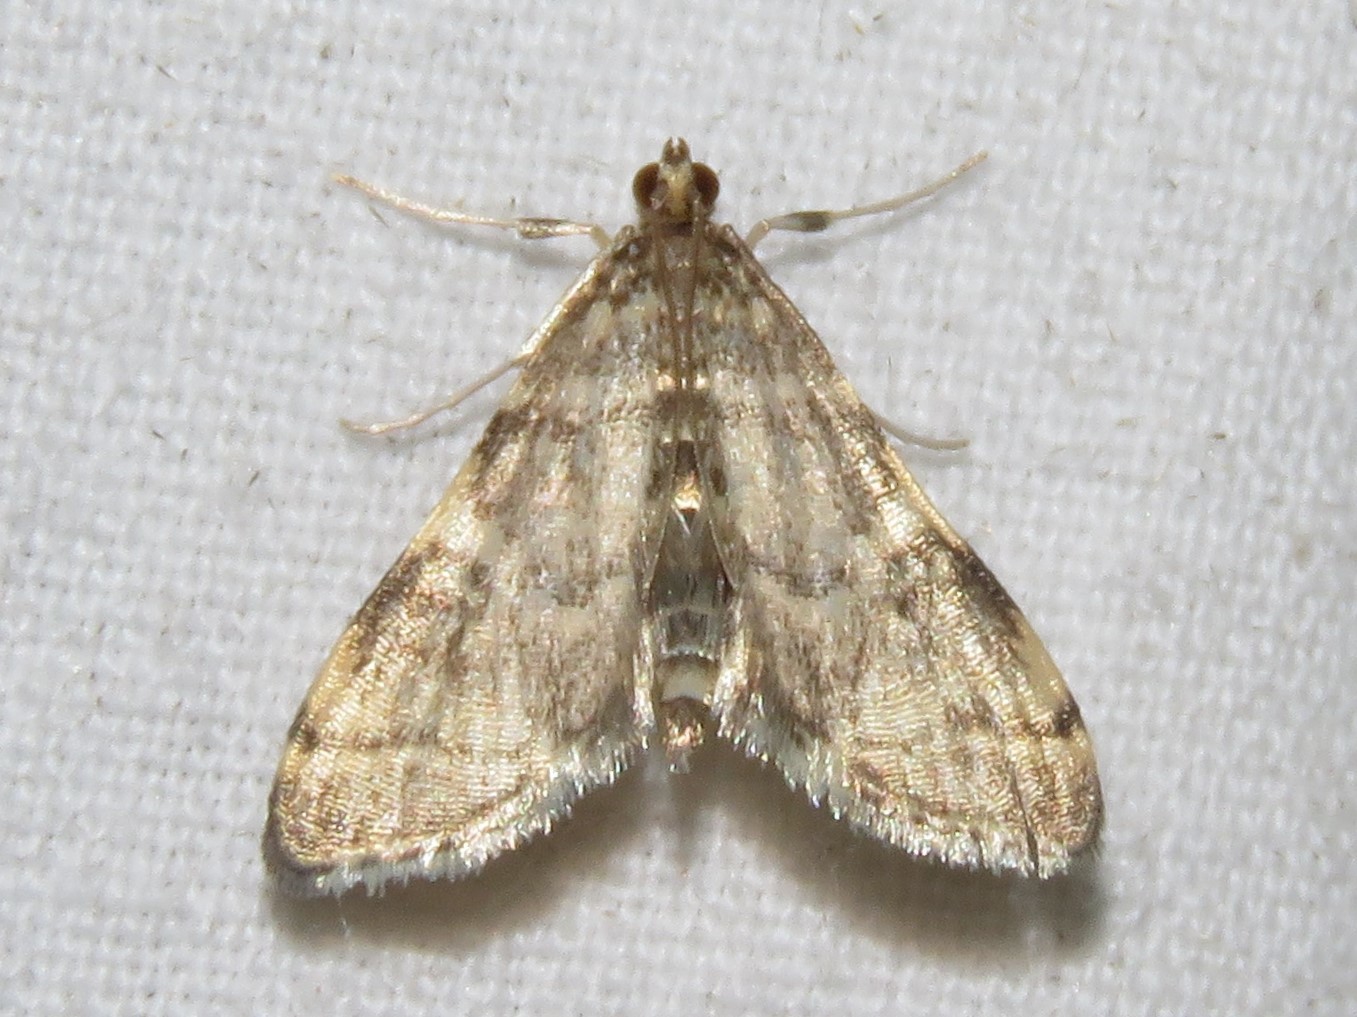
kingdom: Animalia
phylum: Arthropoda
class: Insecta
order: Lepidoptera
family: Crambidae
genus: Anageshna
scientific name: Anageshna primordialis
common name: Yellow-spotted webworm moth
